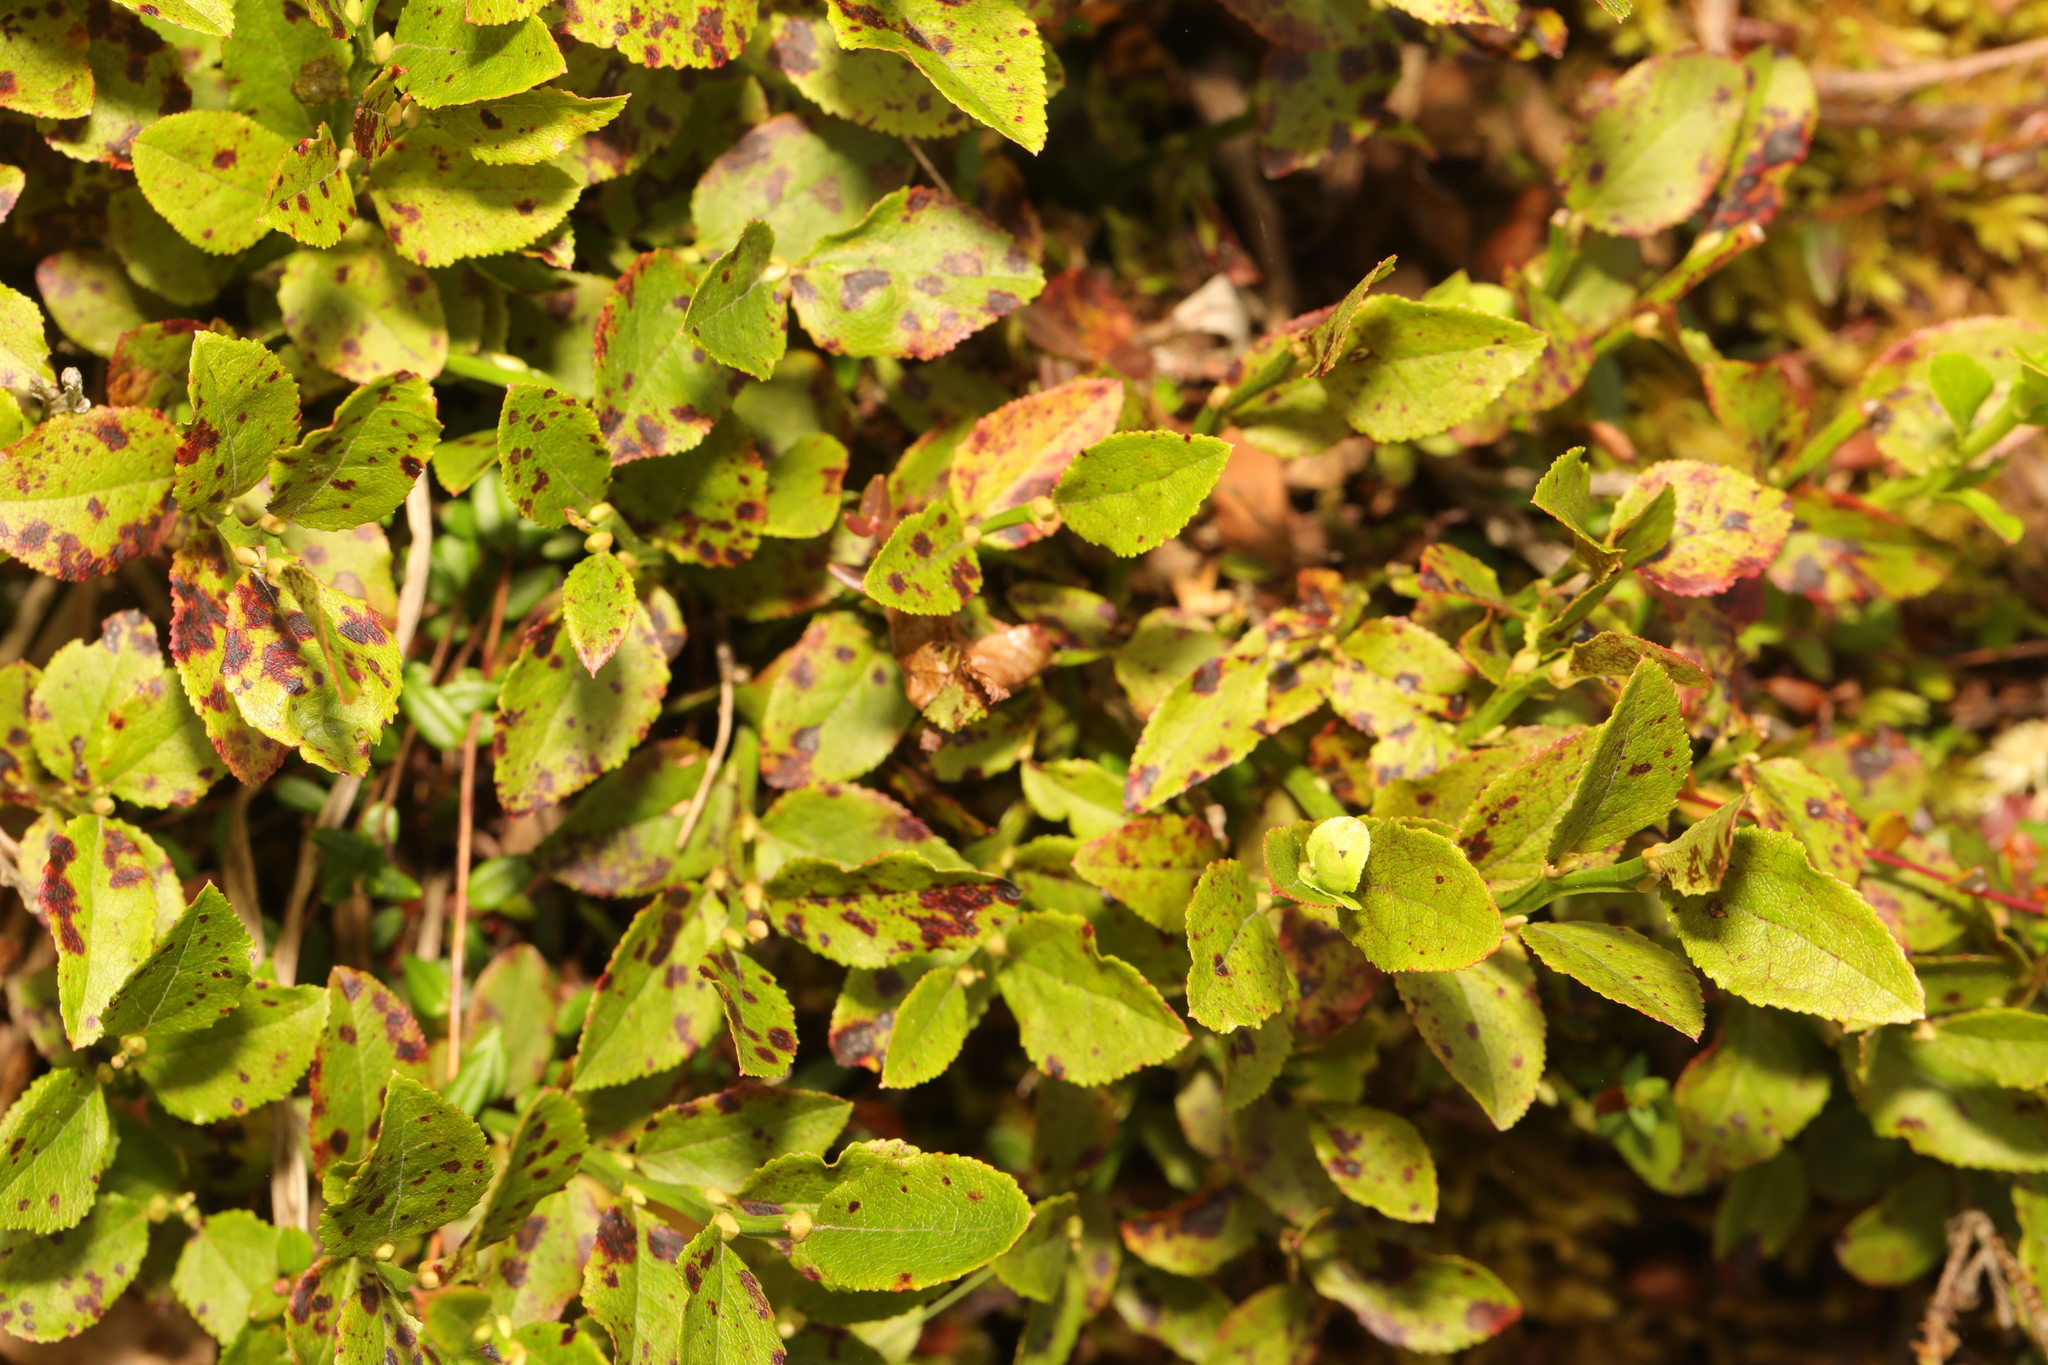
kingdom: Plantae
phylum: Tracheophyta
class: Magnoliopsida
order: Ericales
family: Ericaceae
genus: Vaccinium
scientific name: Vaccinium myrtillus
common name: Bilberry
